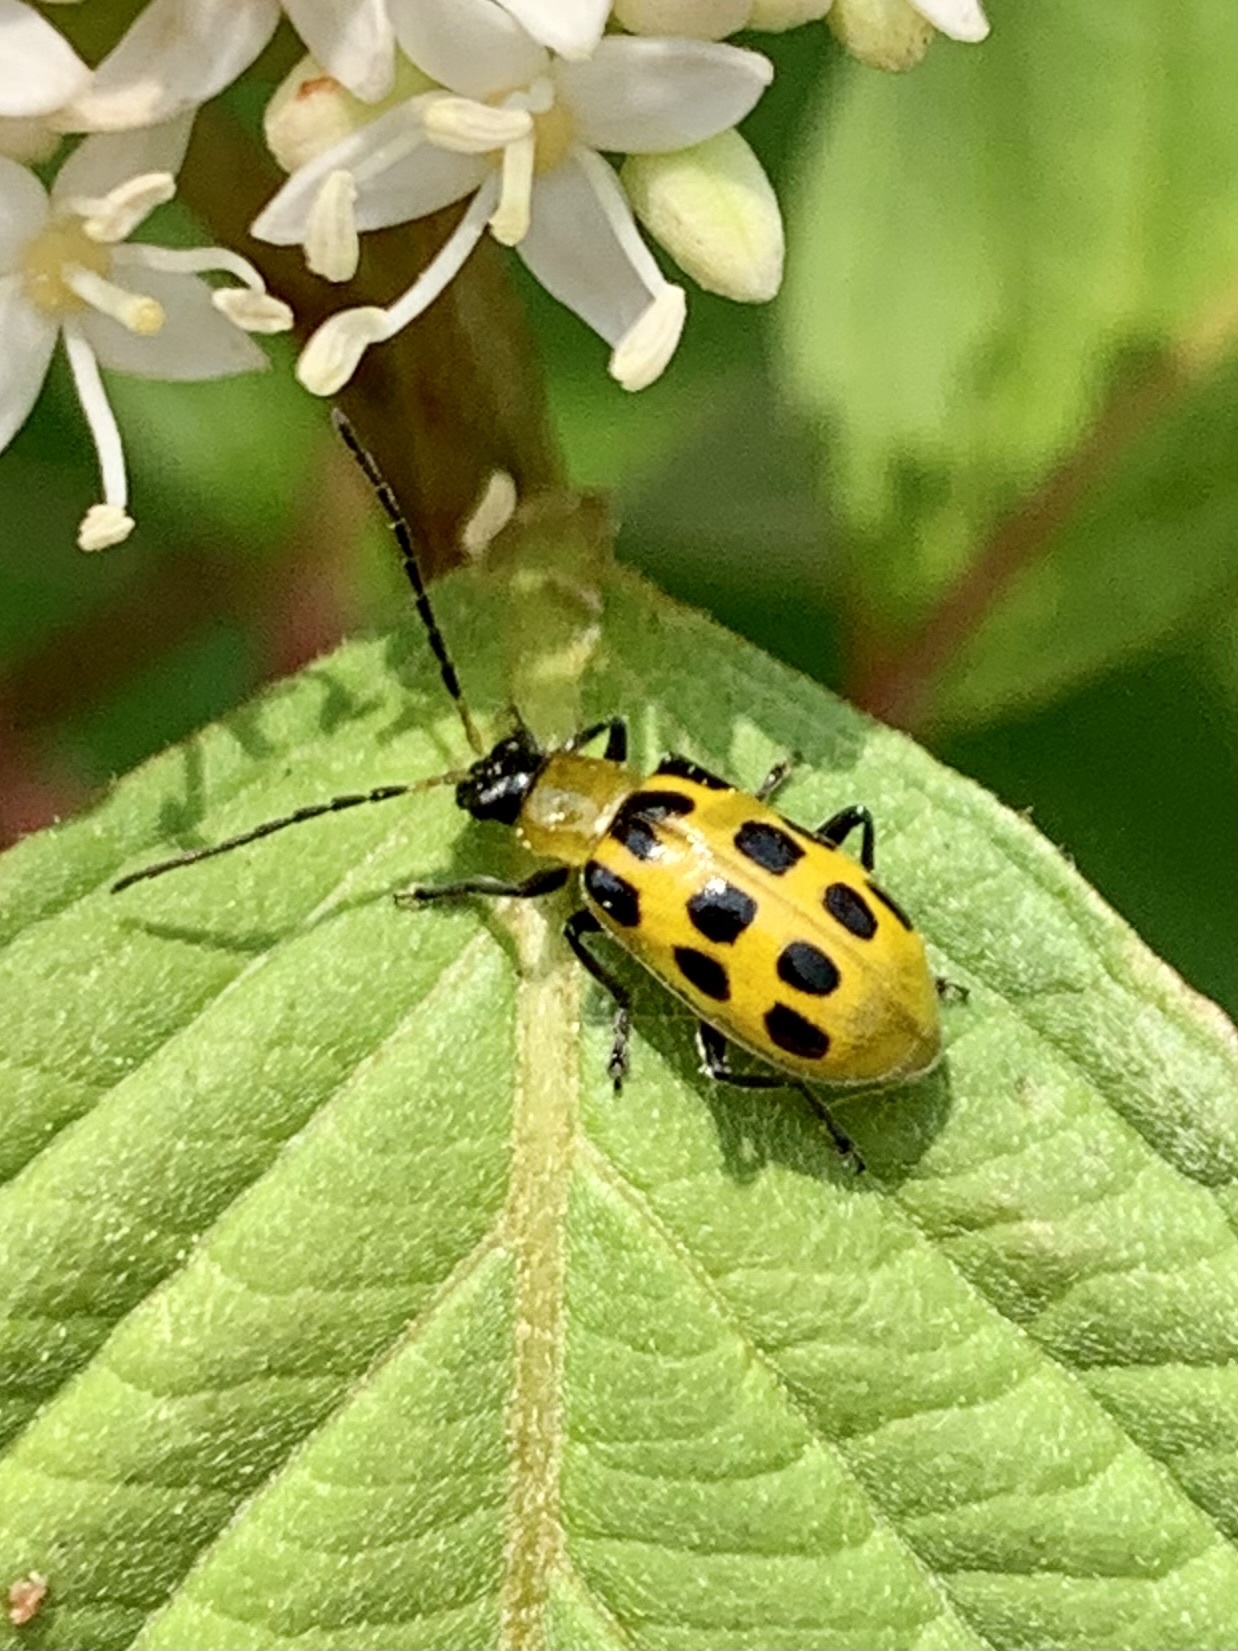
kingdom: Animalia
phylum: Arthropoda
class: Insecta
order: Coleoptera
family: Chrysomelidae
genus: Diabrotica
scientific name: Diabrotica undecimpunctata
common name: Spotted cucumber beetle
